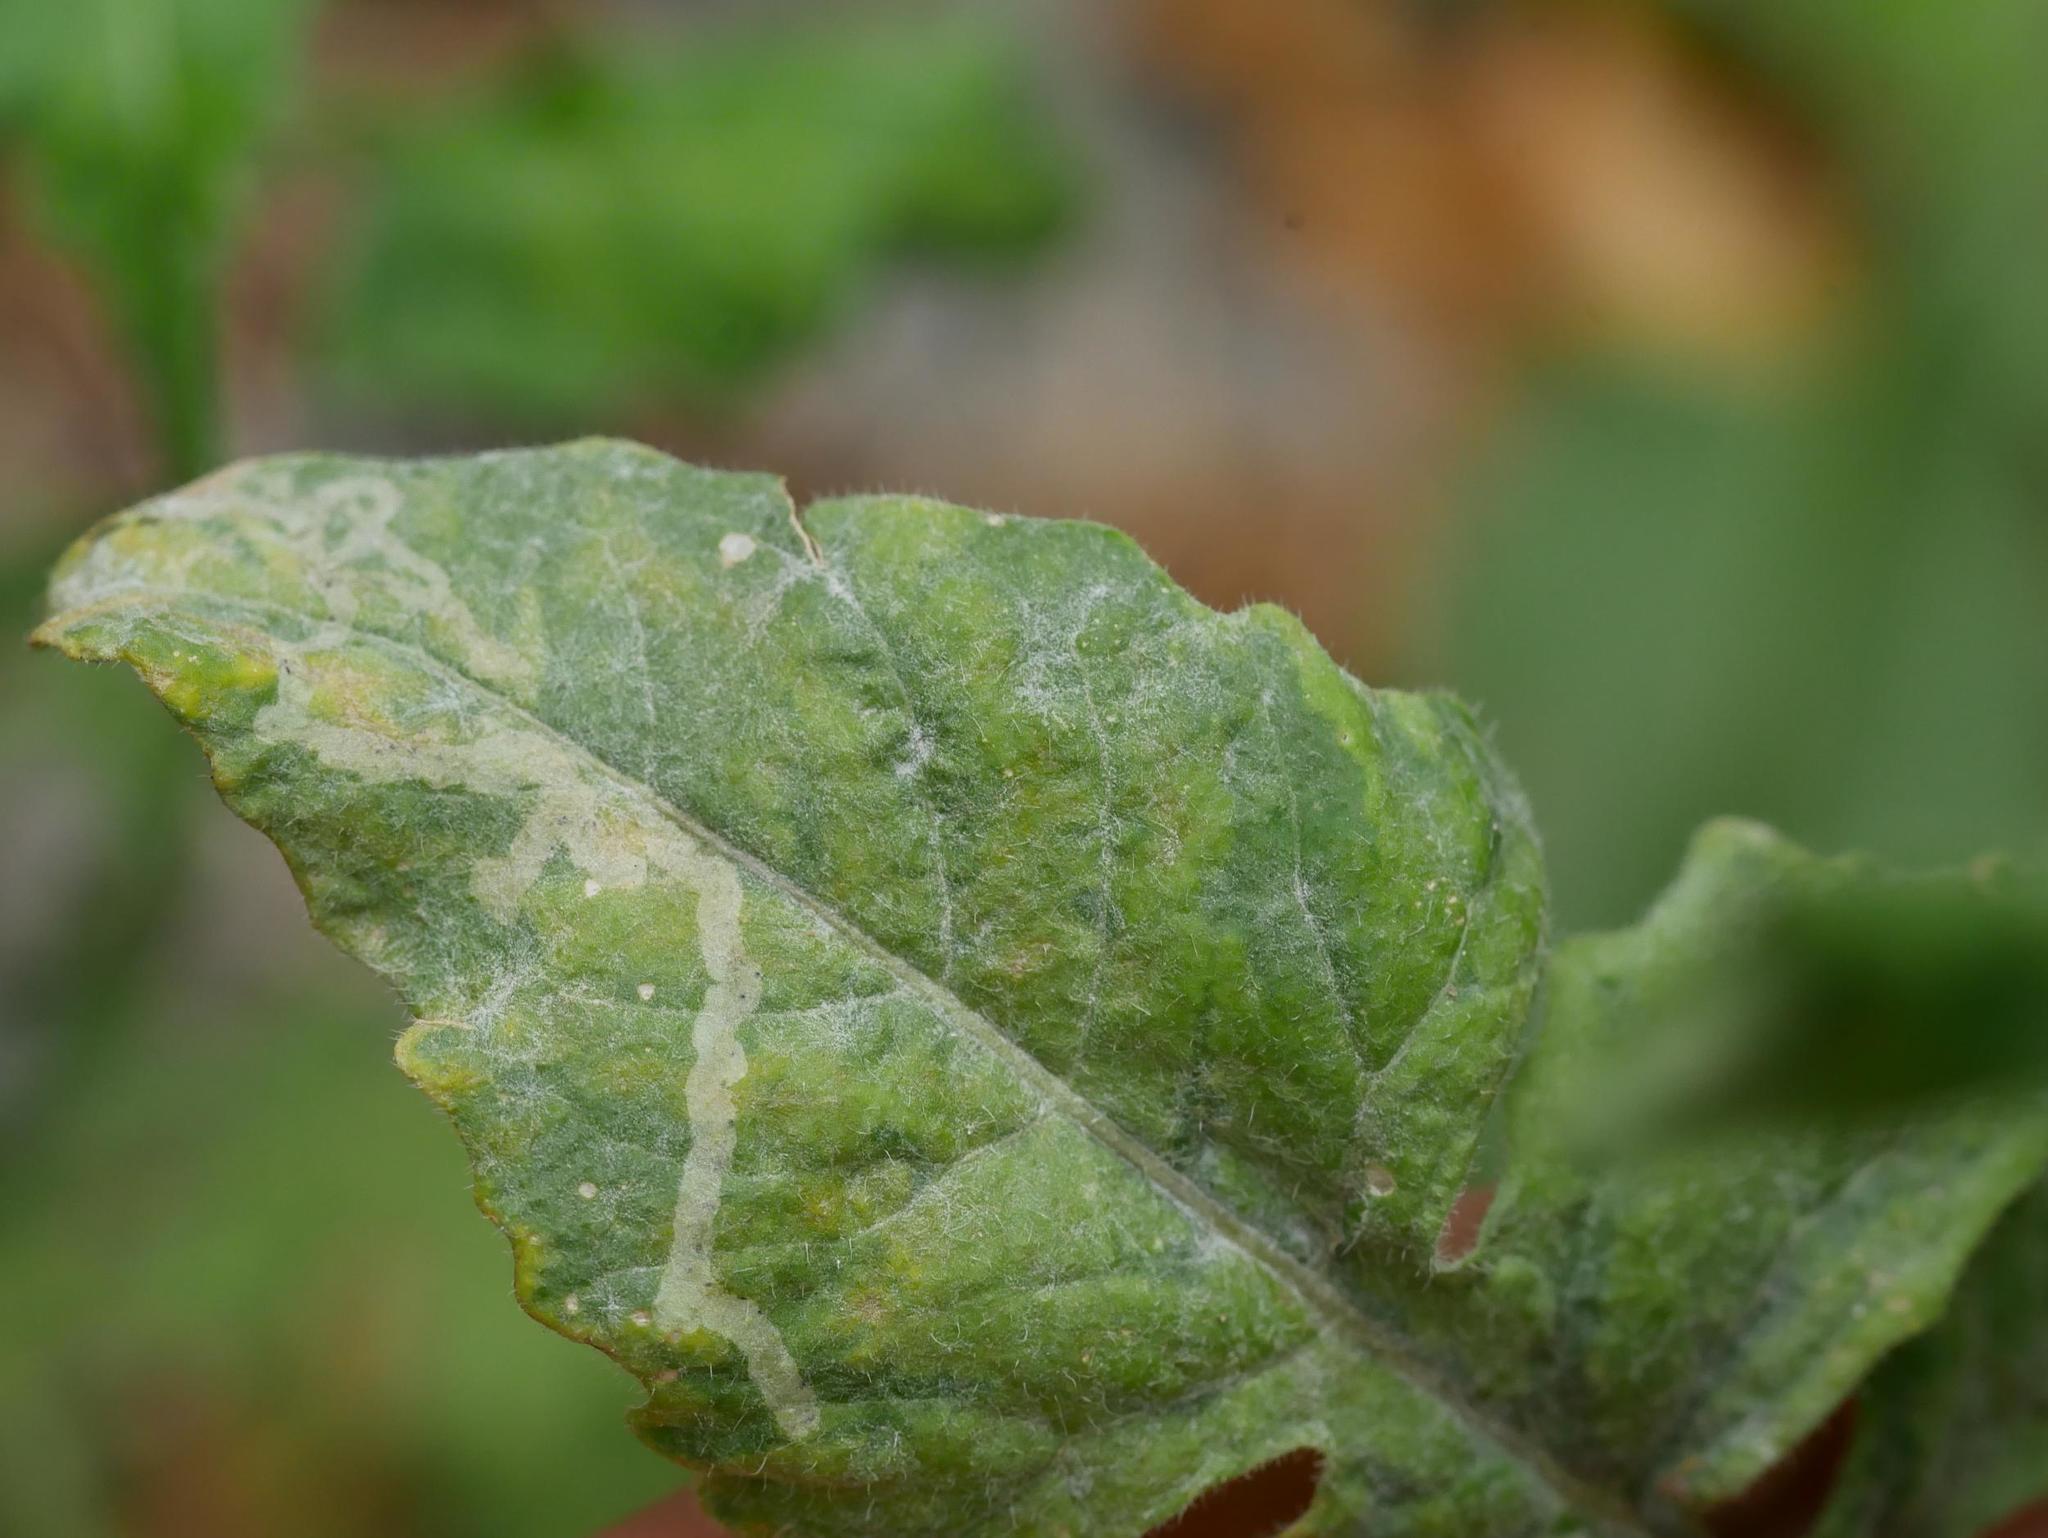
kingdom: Fungi
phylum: Ascomycota
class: Leotiomycetes
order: Helotiales
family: Erysiphaceae
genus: Erysiphe
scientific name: Erysiphe cruciferarum
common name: Brassica powdery mildew
